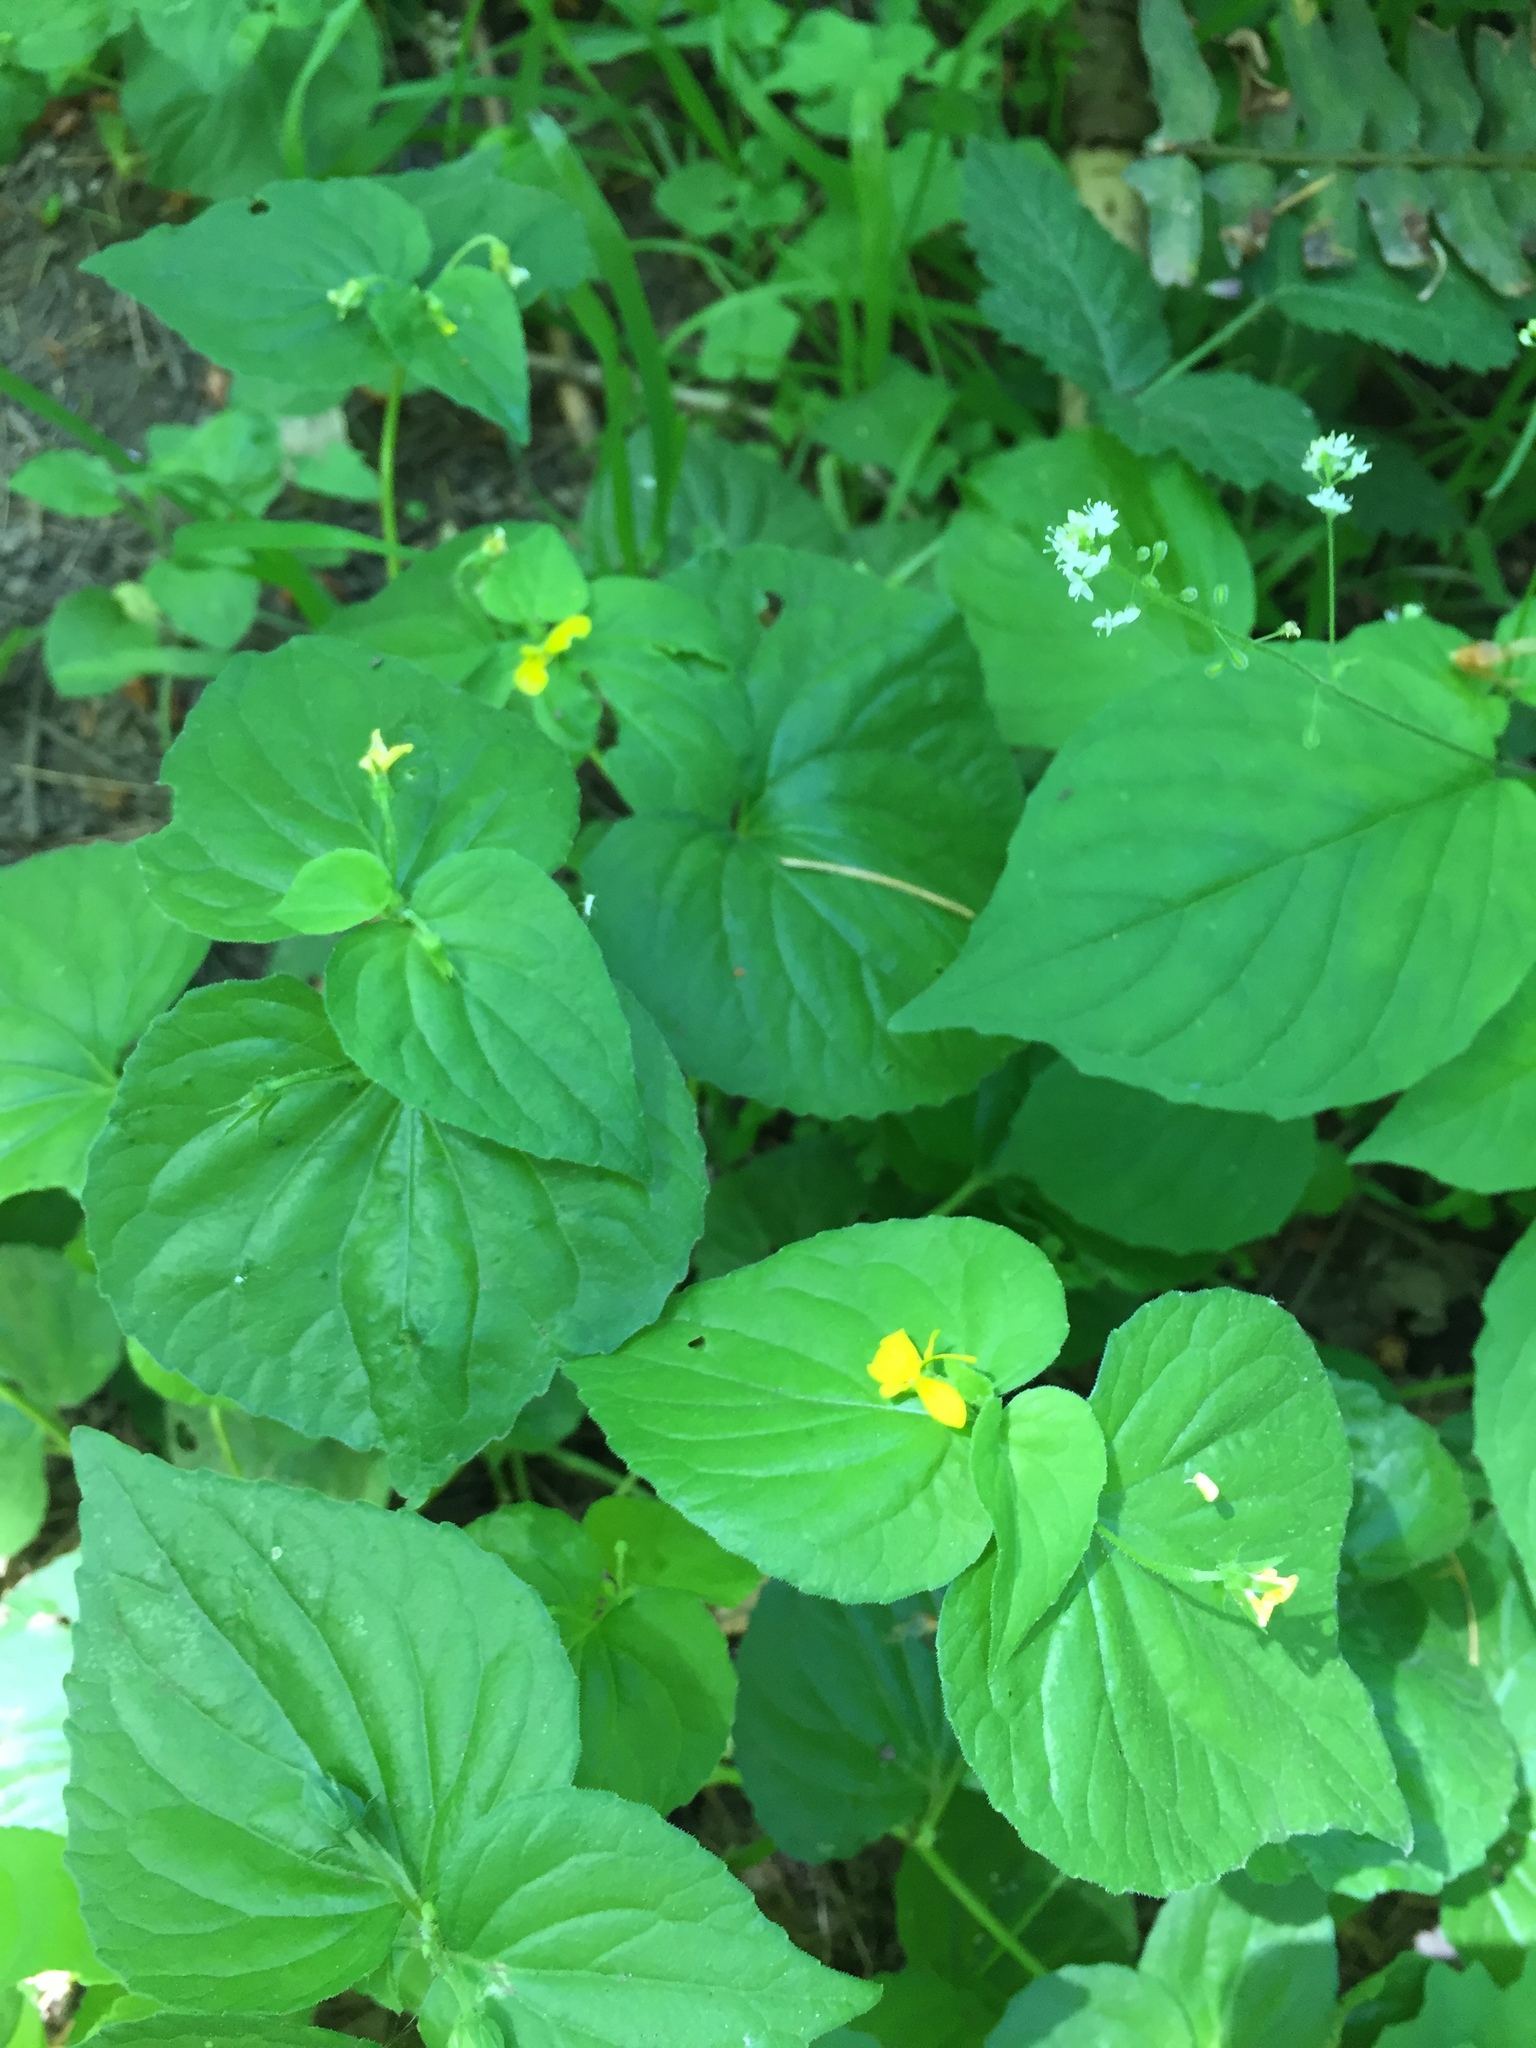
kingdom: Plantae
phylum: Tracheophyta
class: Magnoliopsida
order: Malpighiales
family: Violaceae
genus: Viola
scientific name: Viola glabella
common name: Stream violet
